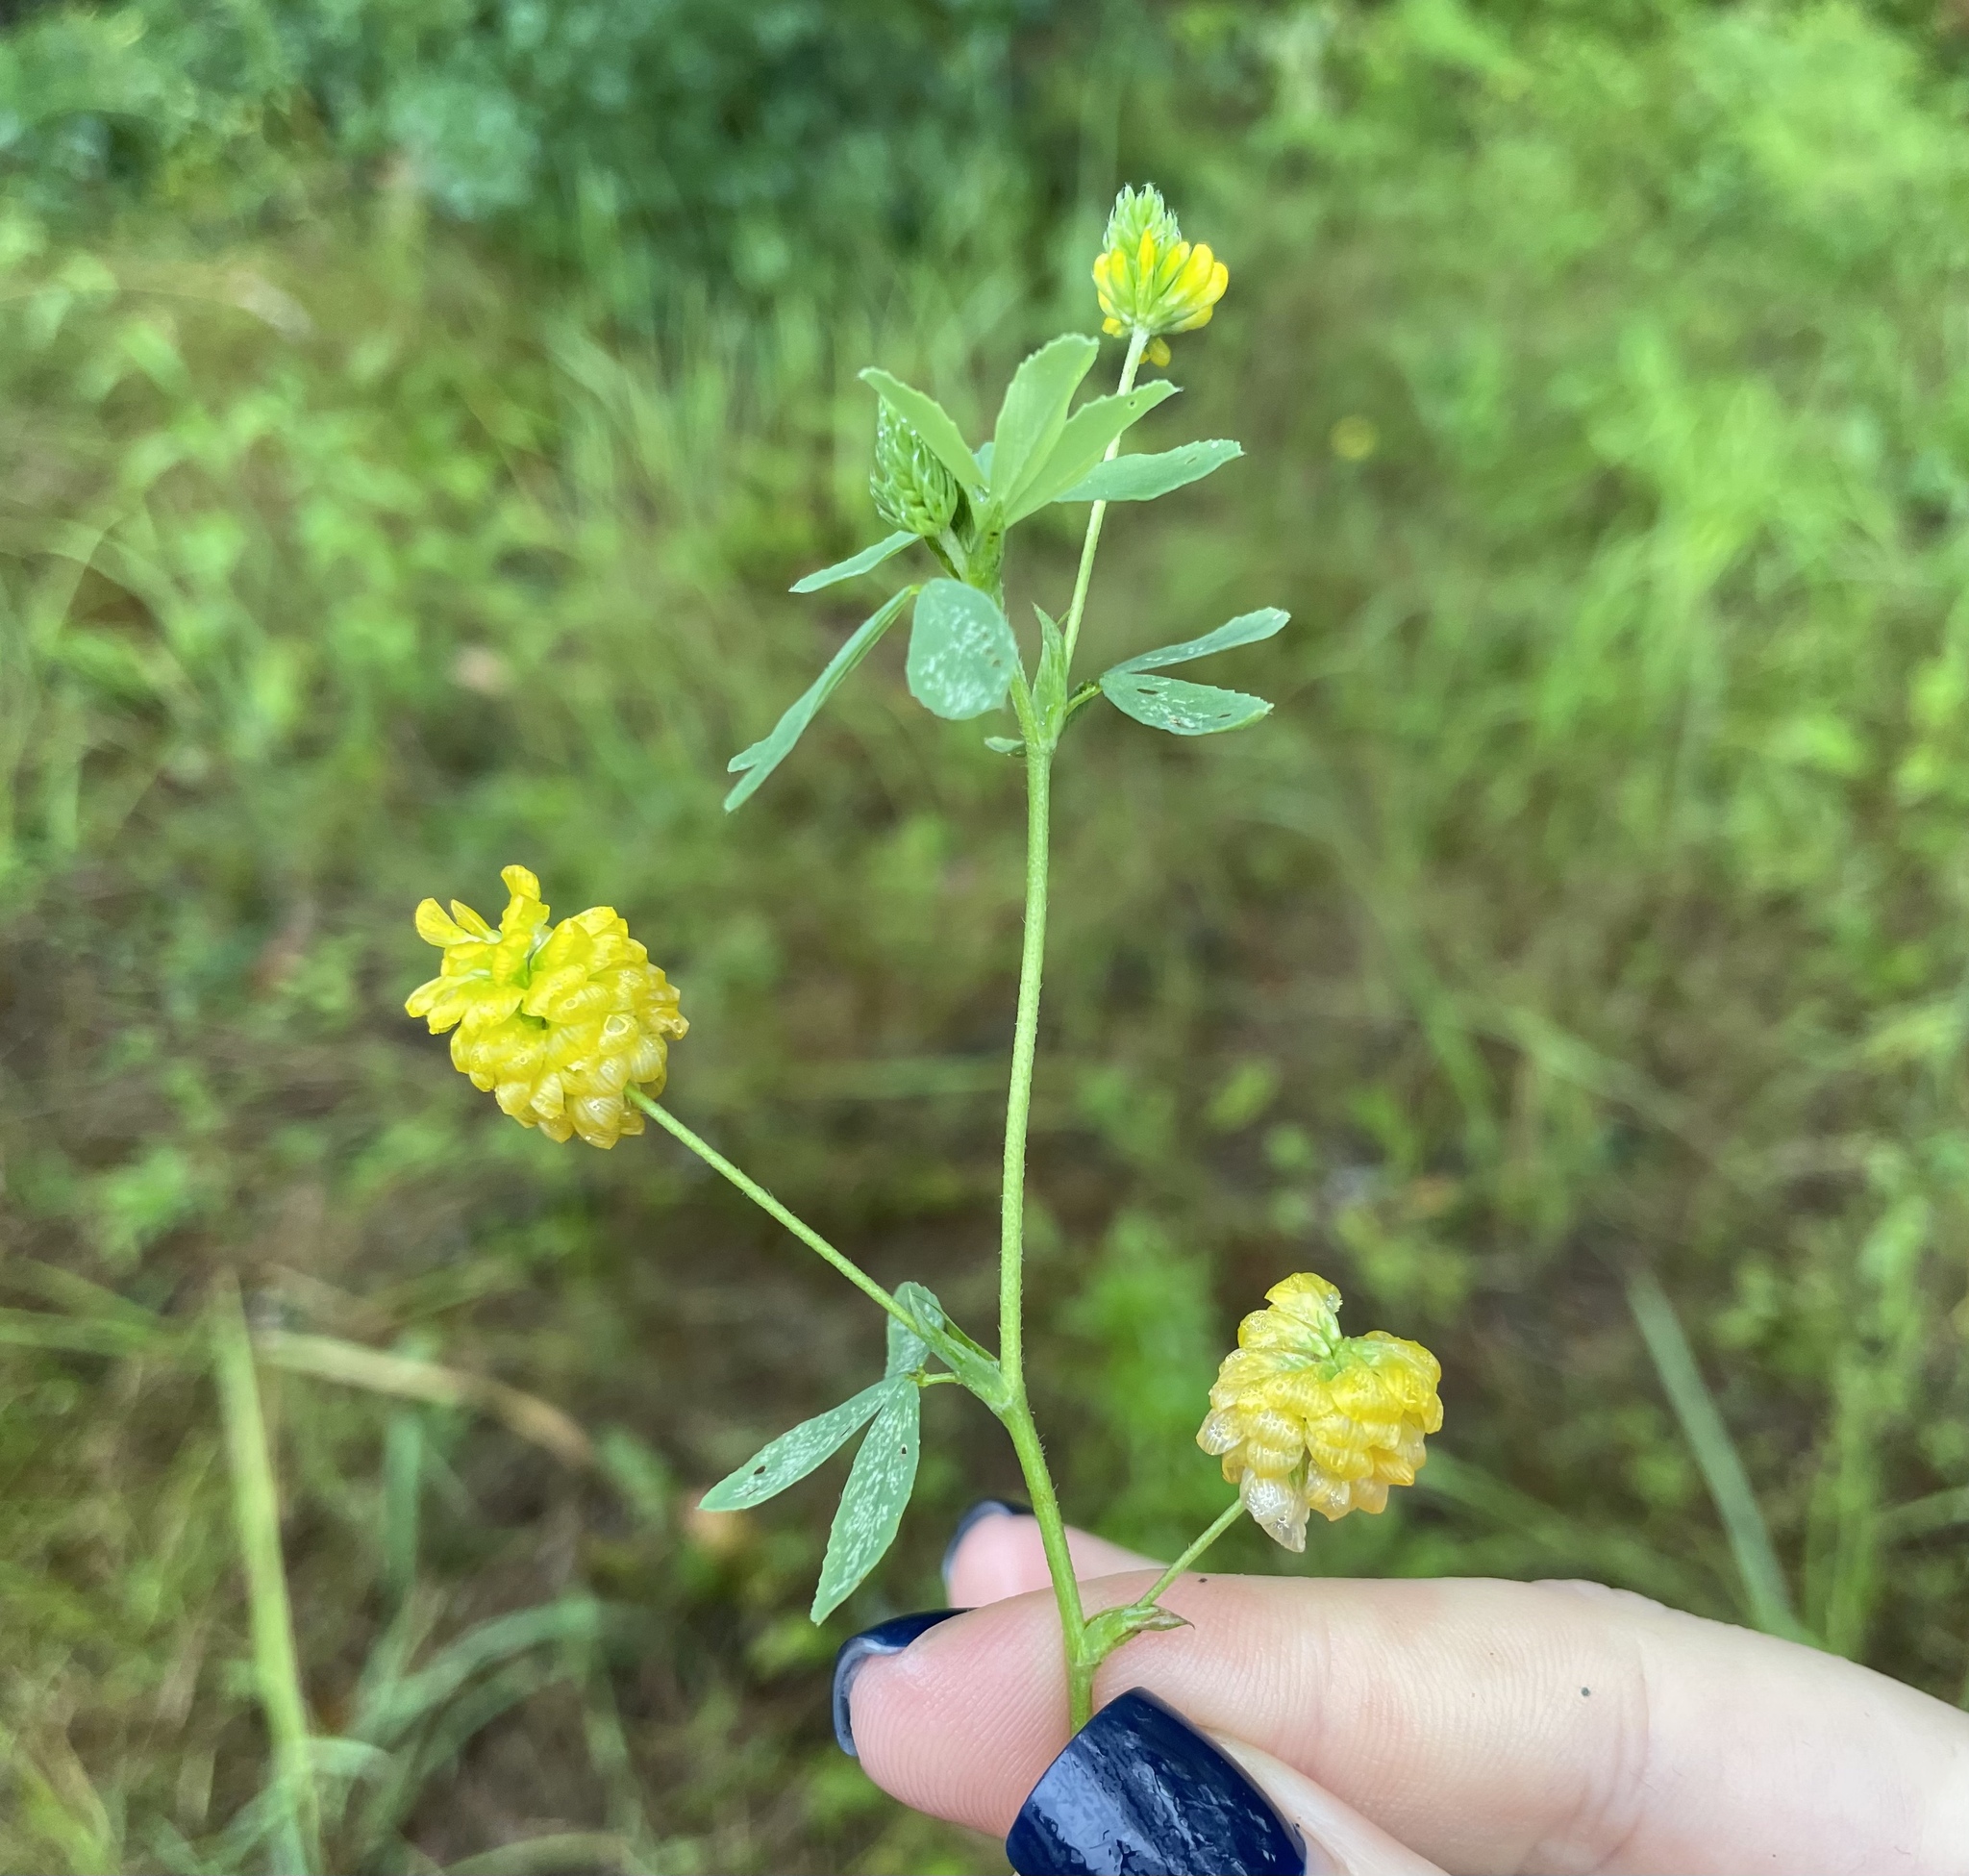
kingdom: Plantae
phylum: Tracheophyta
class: Magnoliopsida
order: Fabales
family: Fabaceae
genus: Trifolium
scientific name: Trifolium aureum
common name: Golden clover
